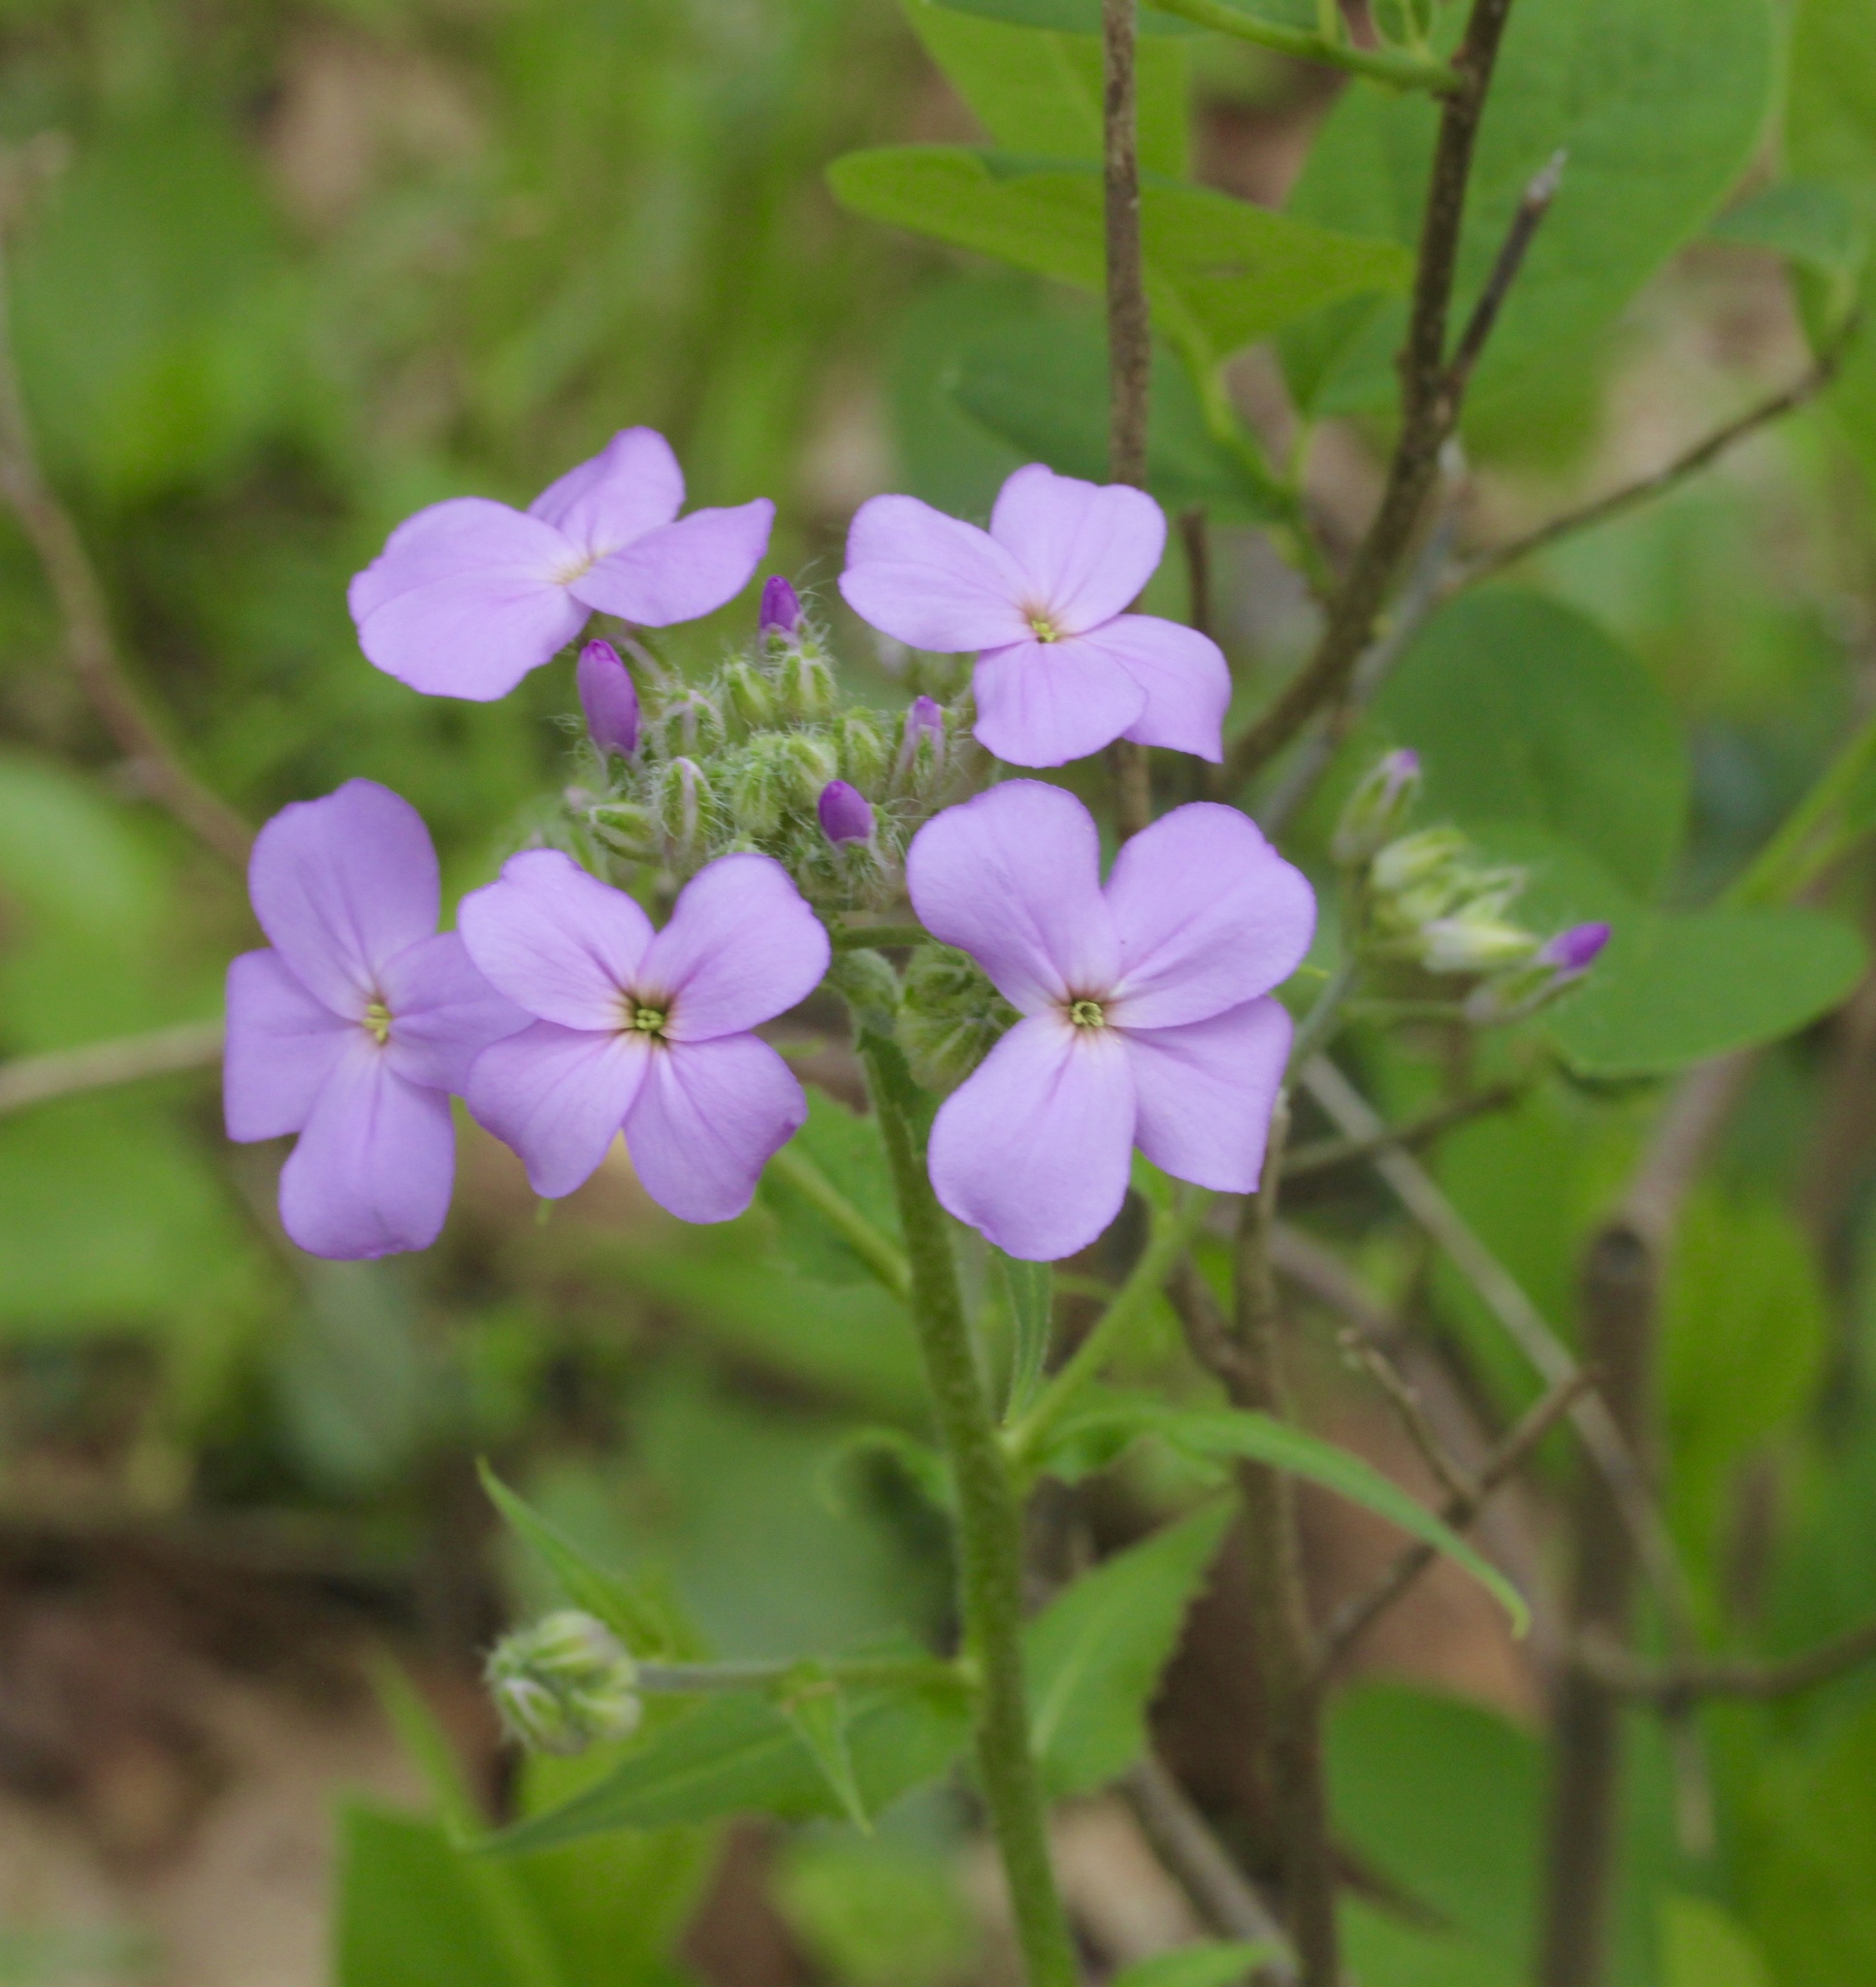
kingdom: Plantae
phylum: Tracheophyta
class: Magnoliopsida
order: Brassicales
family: Brassicaceae
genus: Hesperis
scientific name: Hesperis matronalis
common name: Dame's-violet
